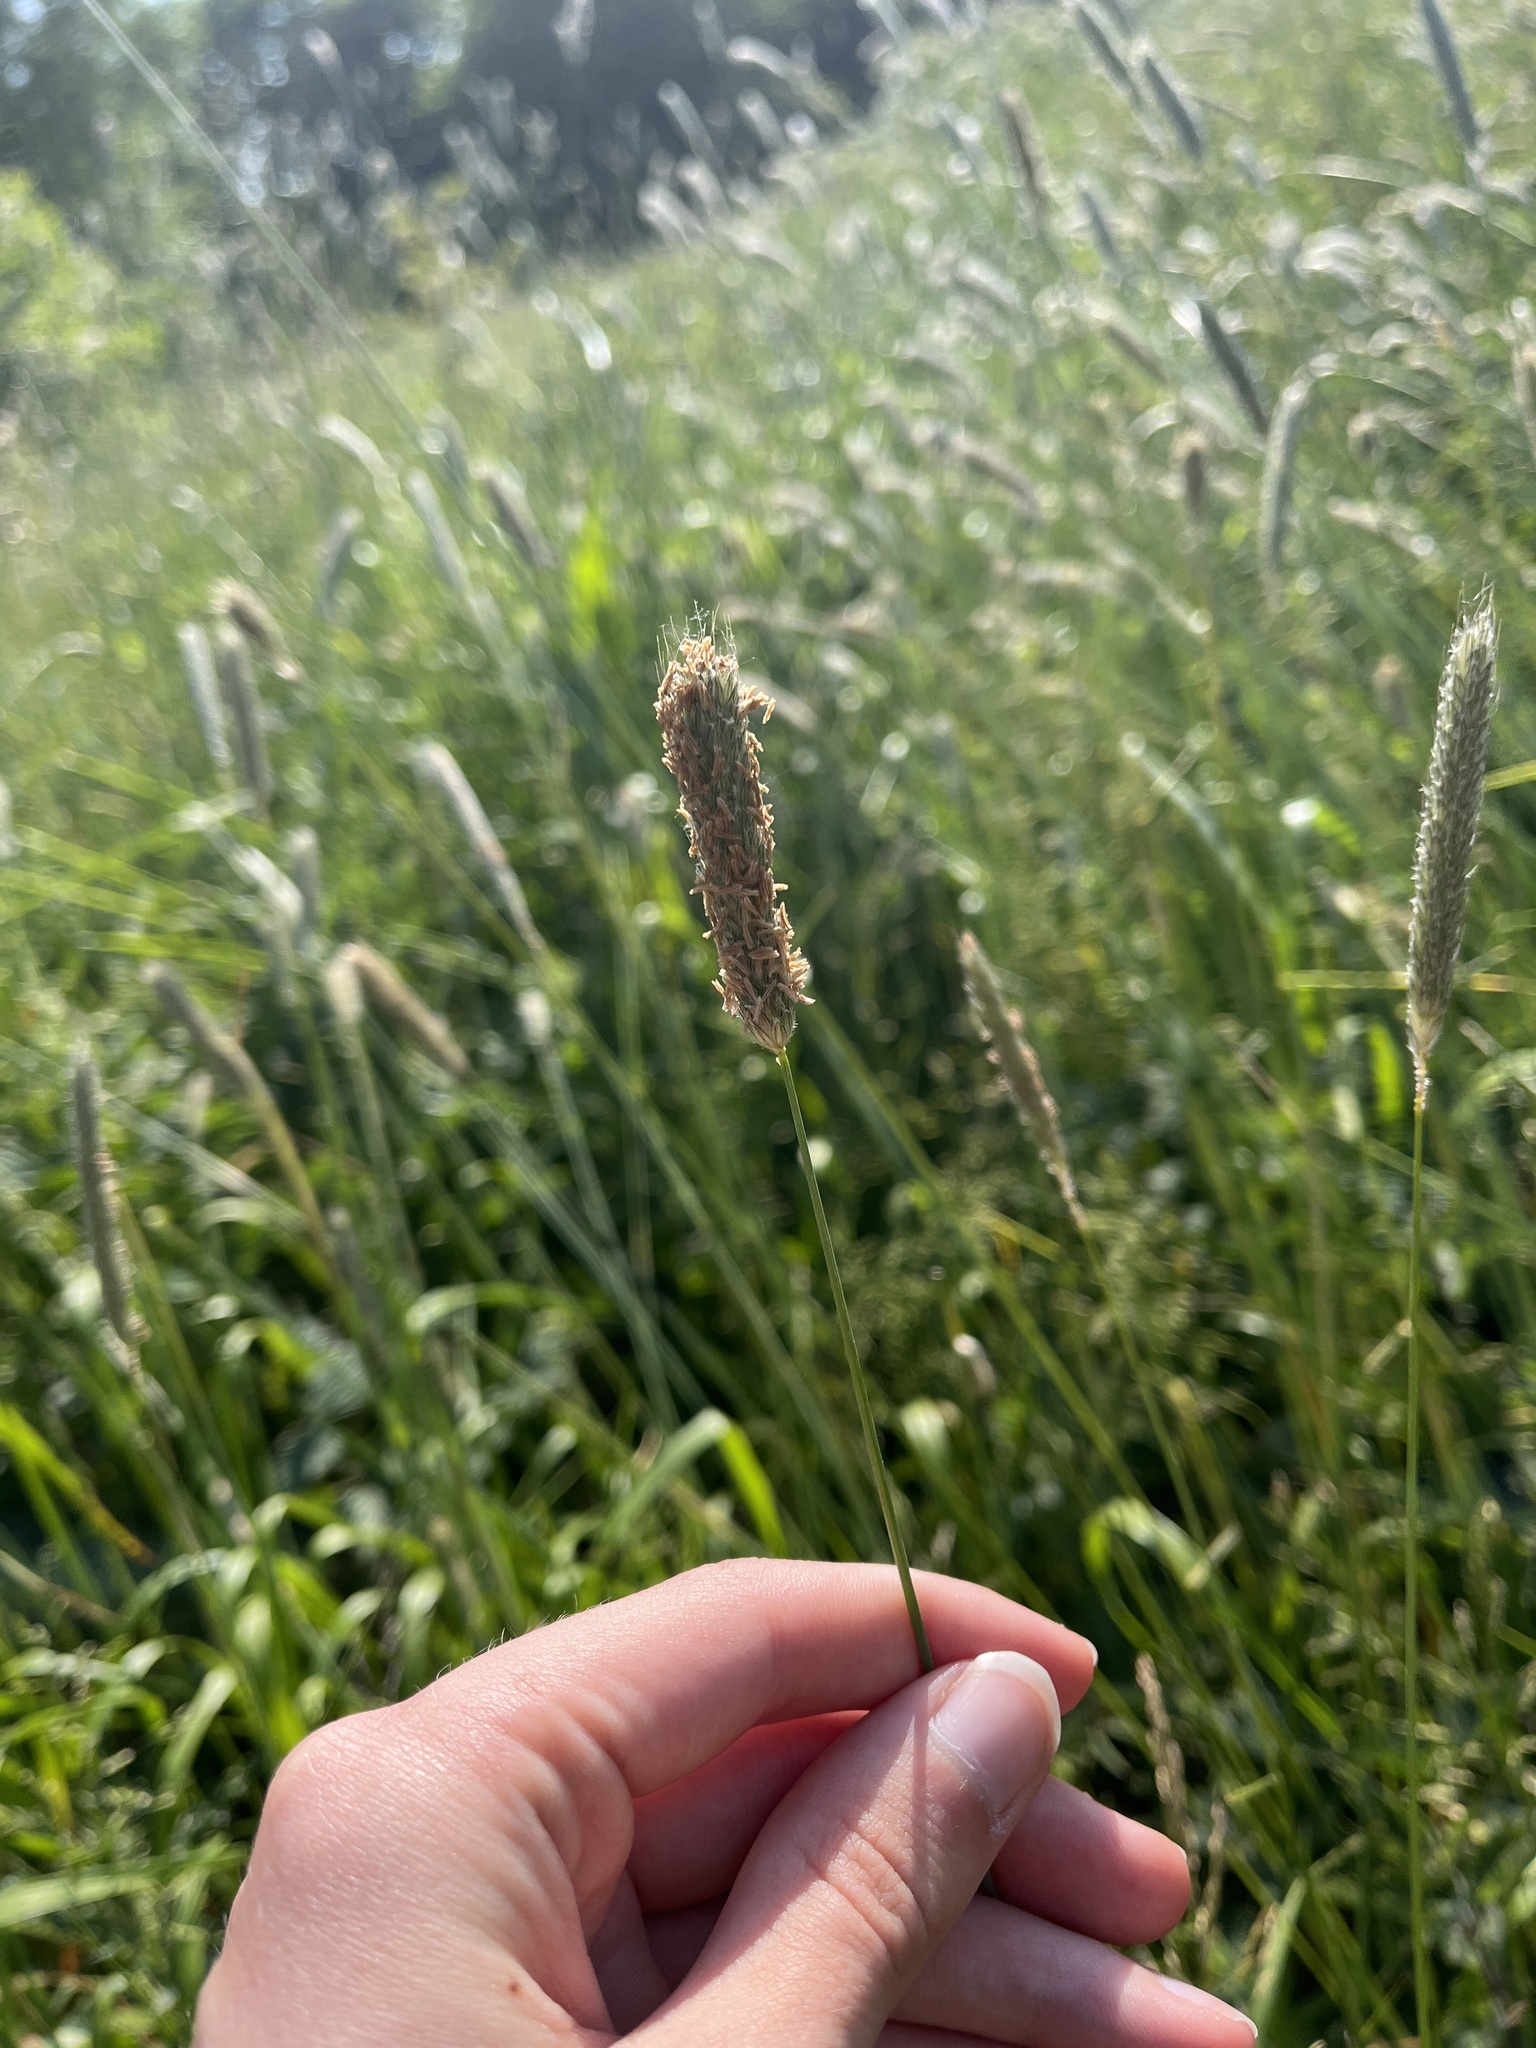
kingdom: Plantae
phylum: Tracheophyta
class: Liliopsida
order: Poales
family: Poaceae
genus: Alopecurus
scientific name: Alopecurus pratensis
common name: Meadow foxtail
